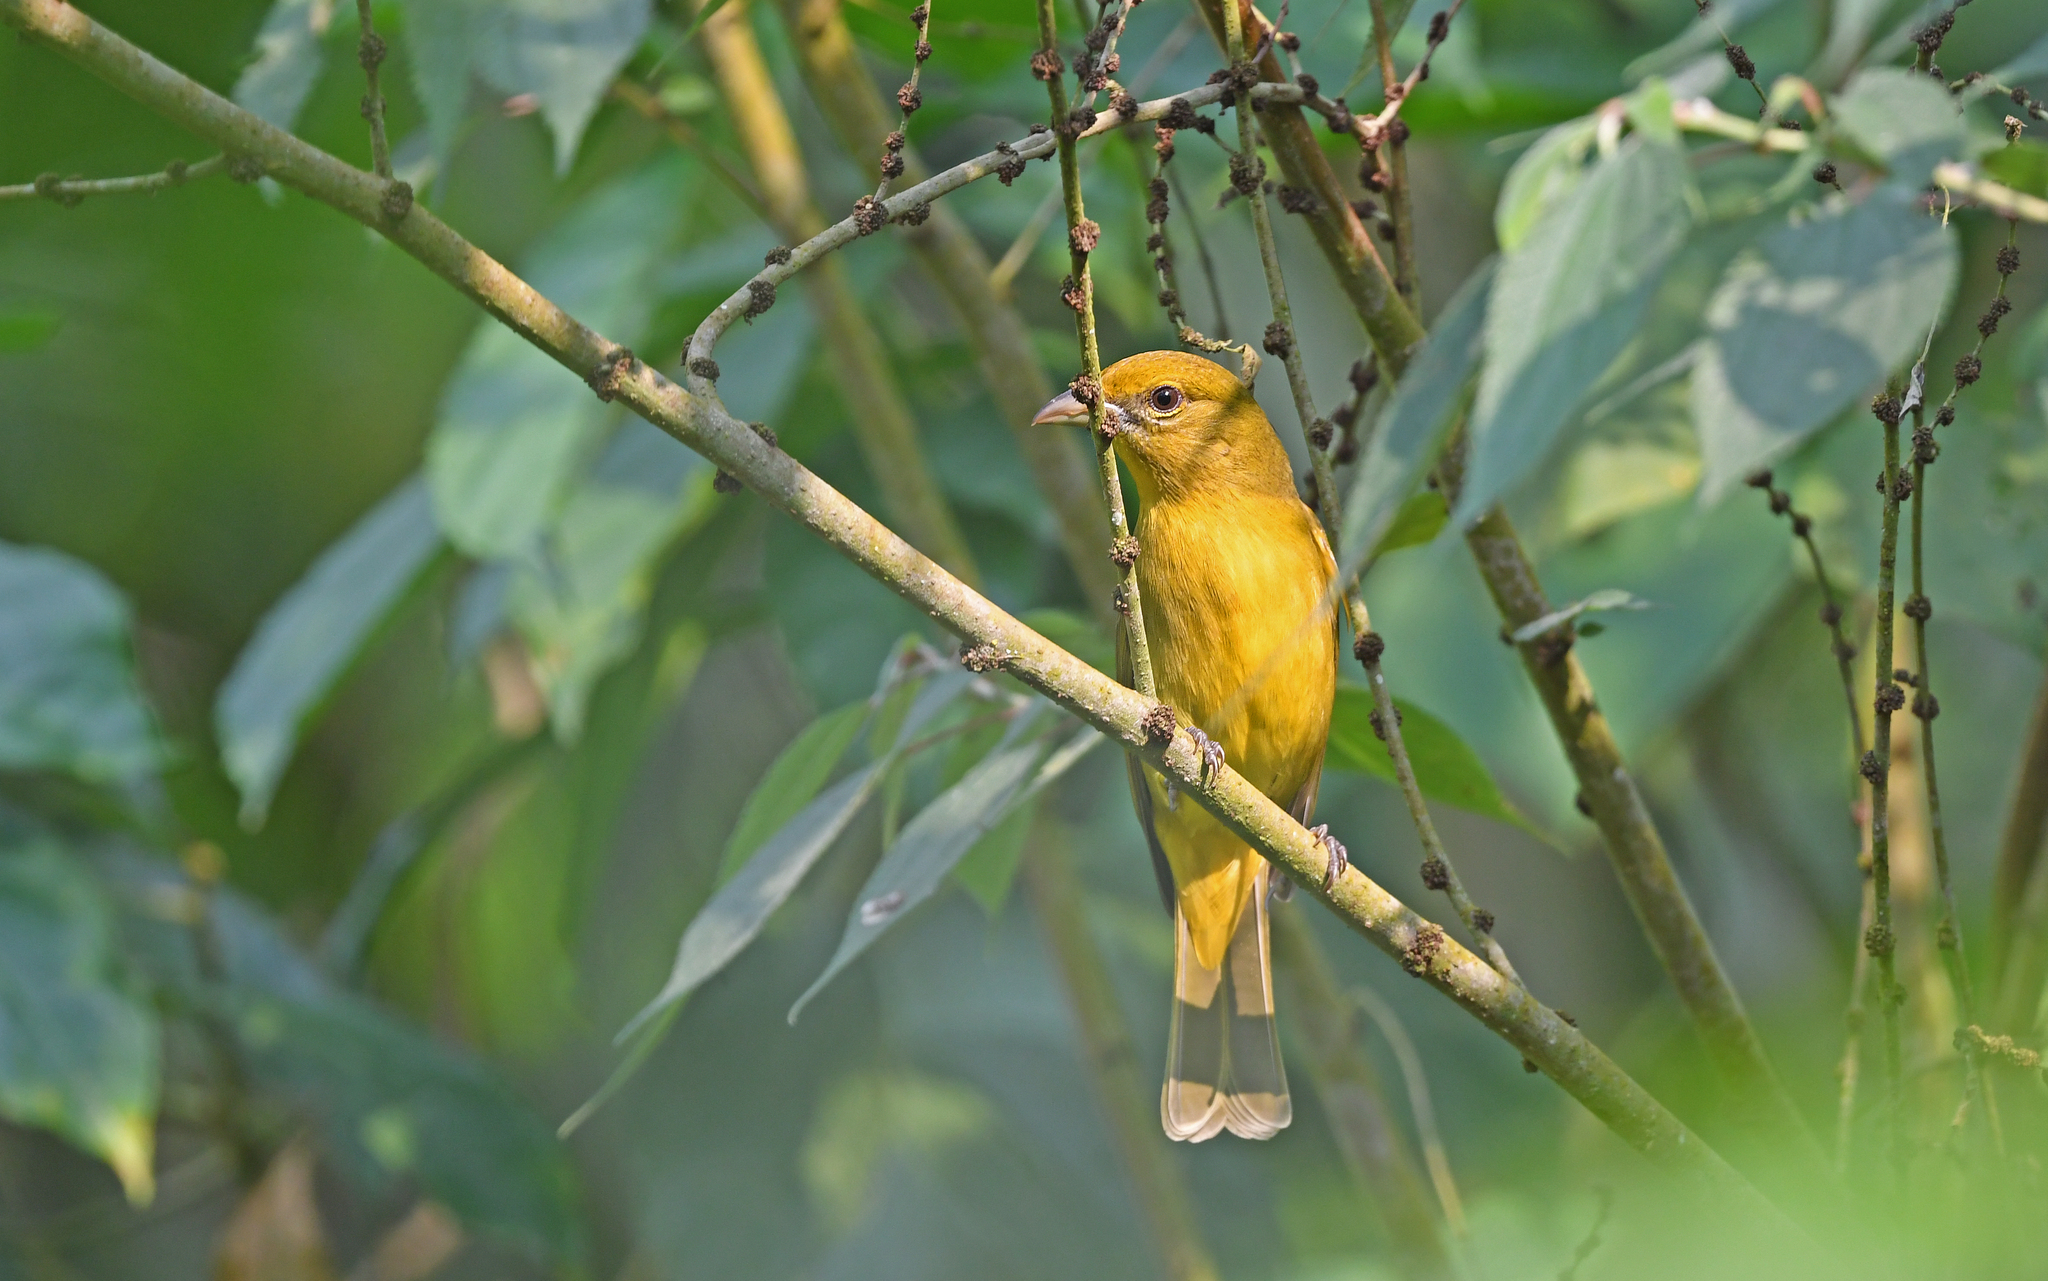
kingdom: Animalia
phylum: Chordata
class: Aves
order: Passeriformes
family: Cardinalidae
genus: Piranga
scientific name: Piranga rubra
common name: Summer tanager
